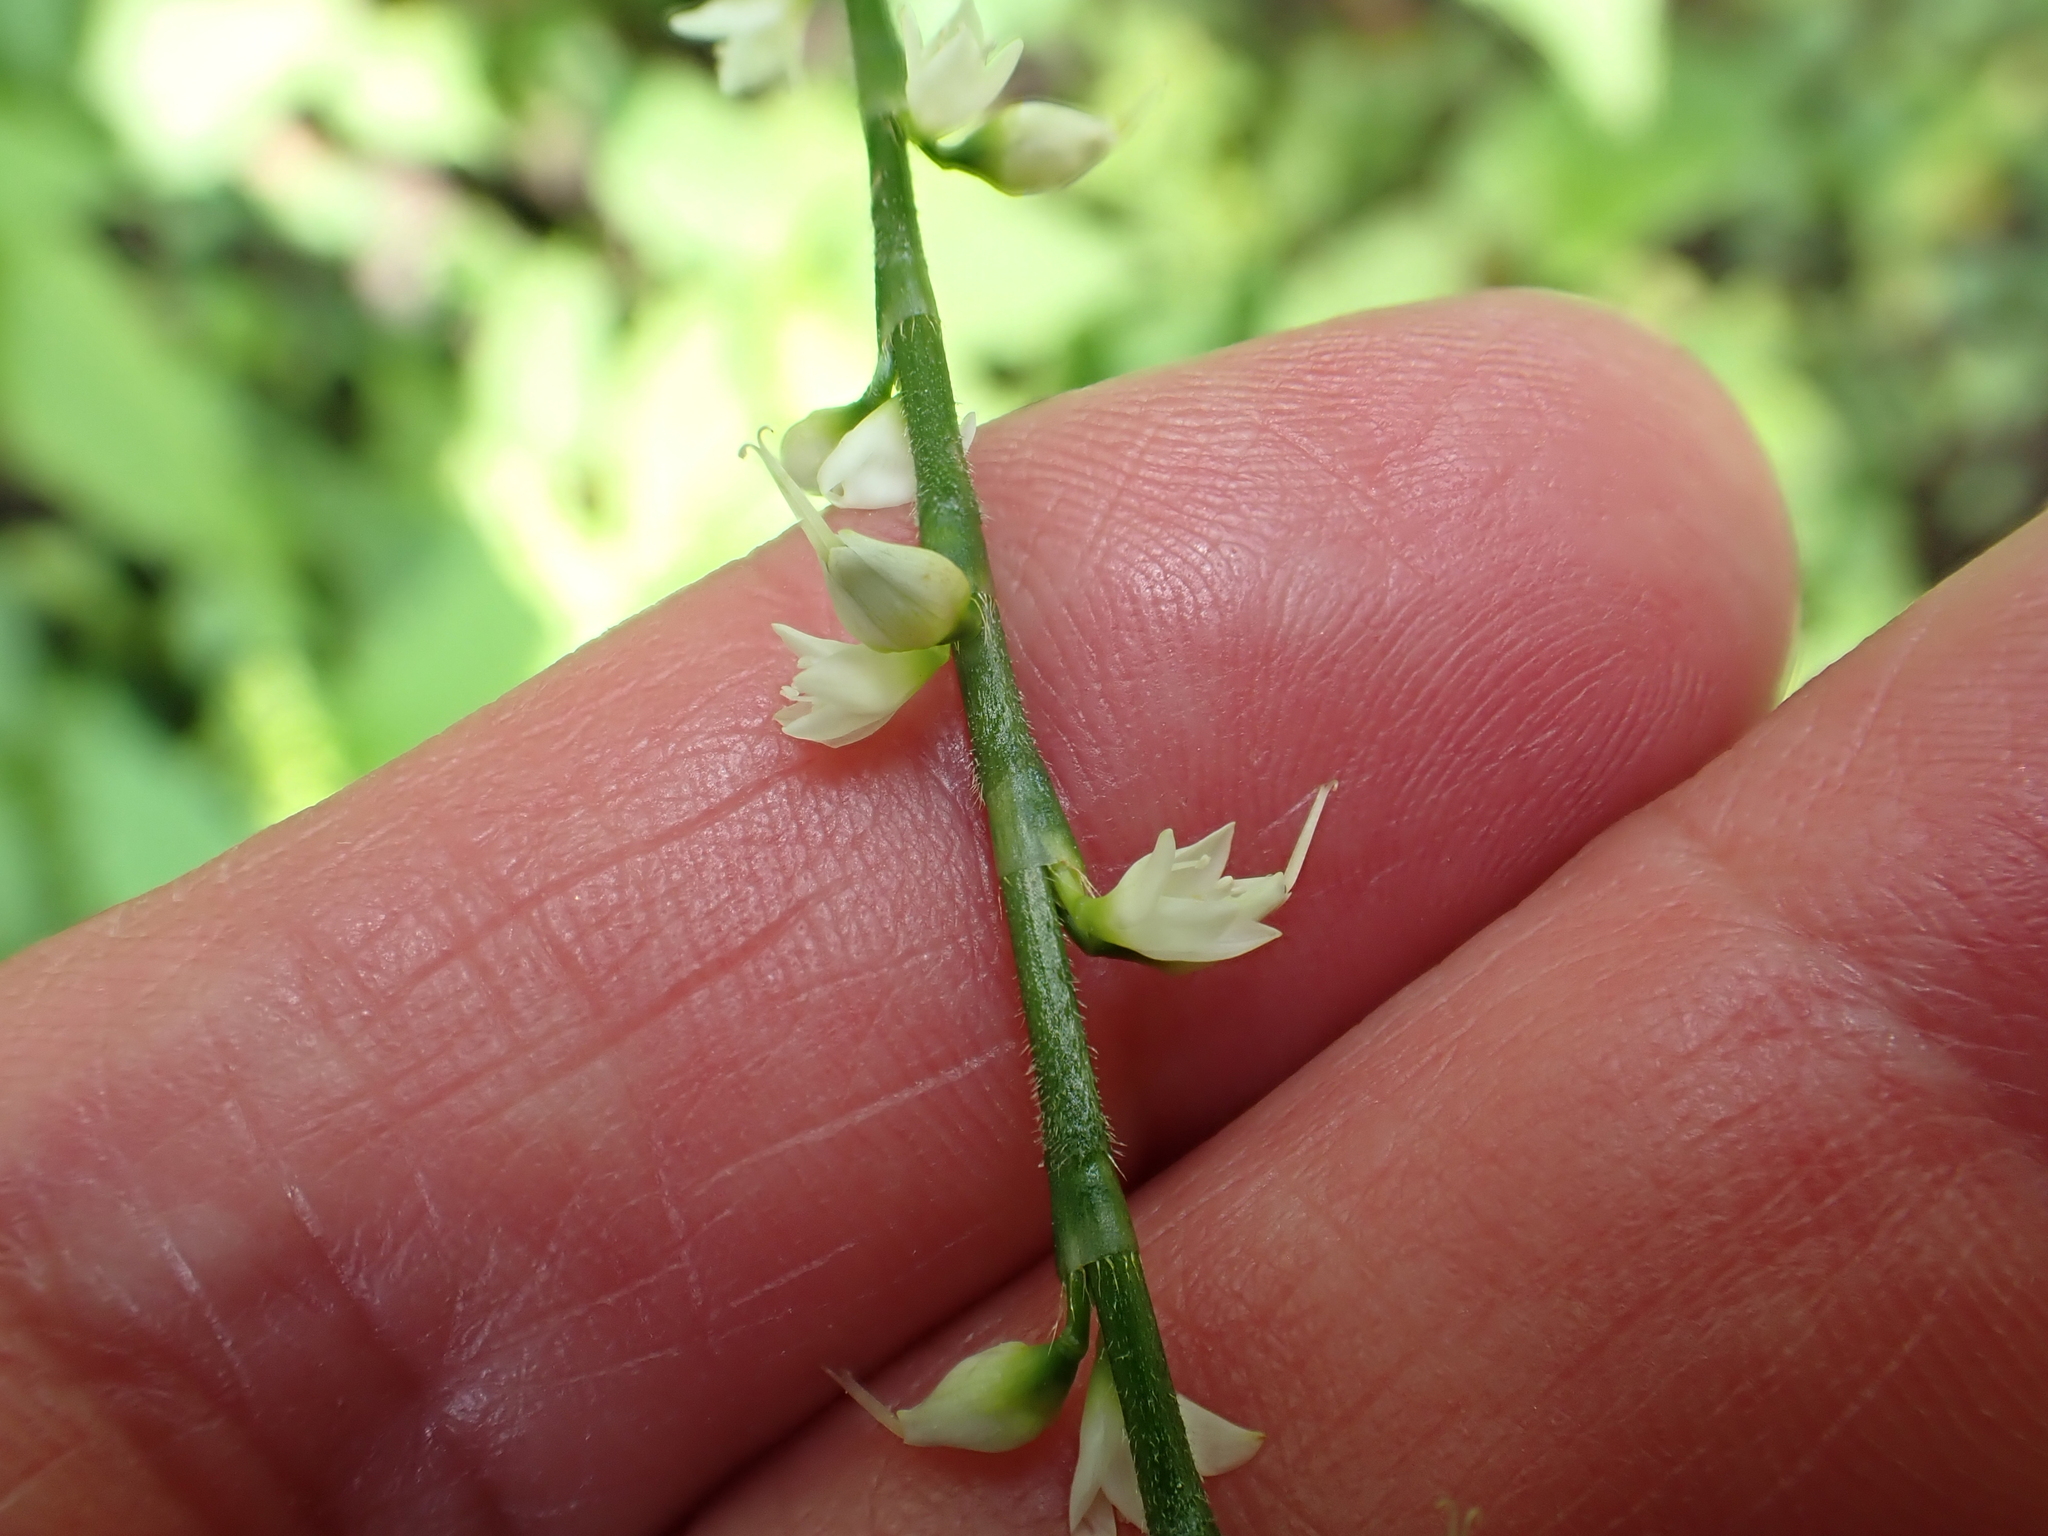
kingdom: Plantae
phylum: Tracheophyta
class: Magnoliopsida
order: Caryophyllales
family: Polygonaceae
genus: Persicaria
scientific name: Persicaria virginiana
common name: Jumpseed
